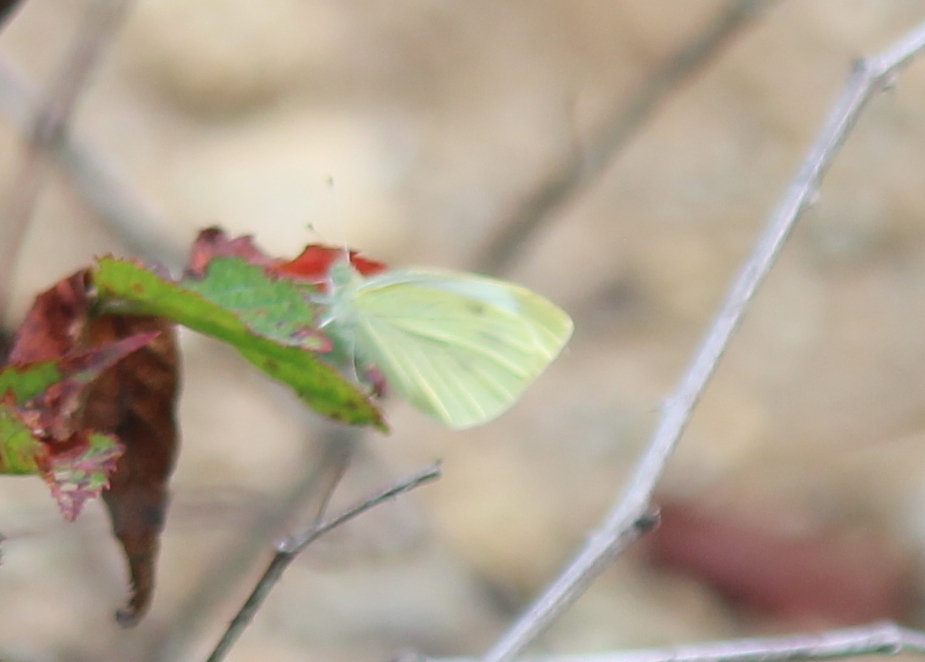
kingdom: Animalia
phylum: Arthropoda
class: Insecta
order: Lepidoptera
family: Pieridae
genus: Pieris
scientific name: Pieris rapae
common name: Small white
